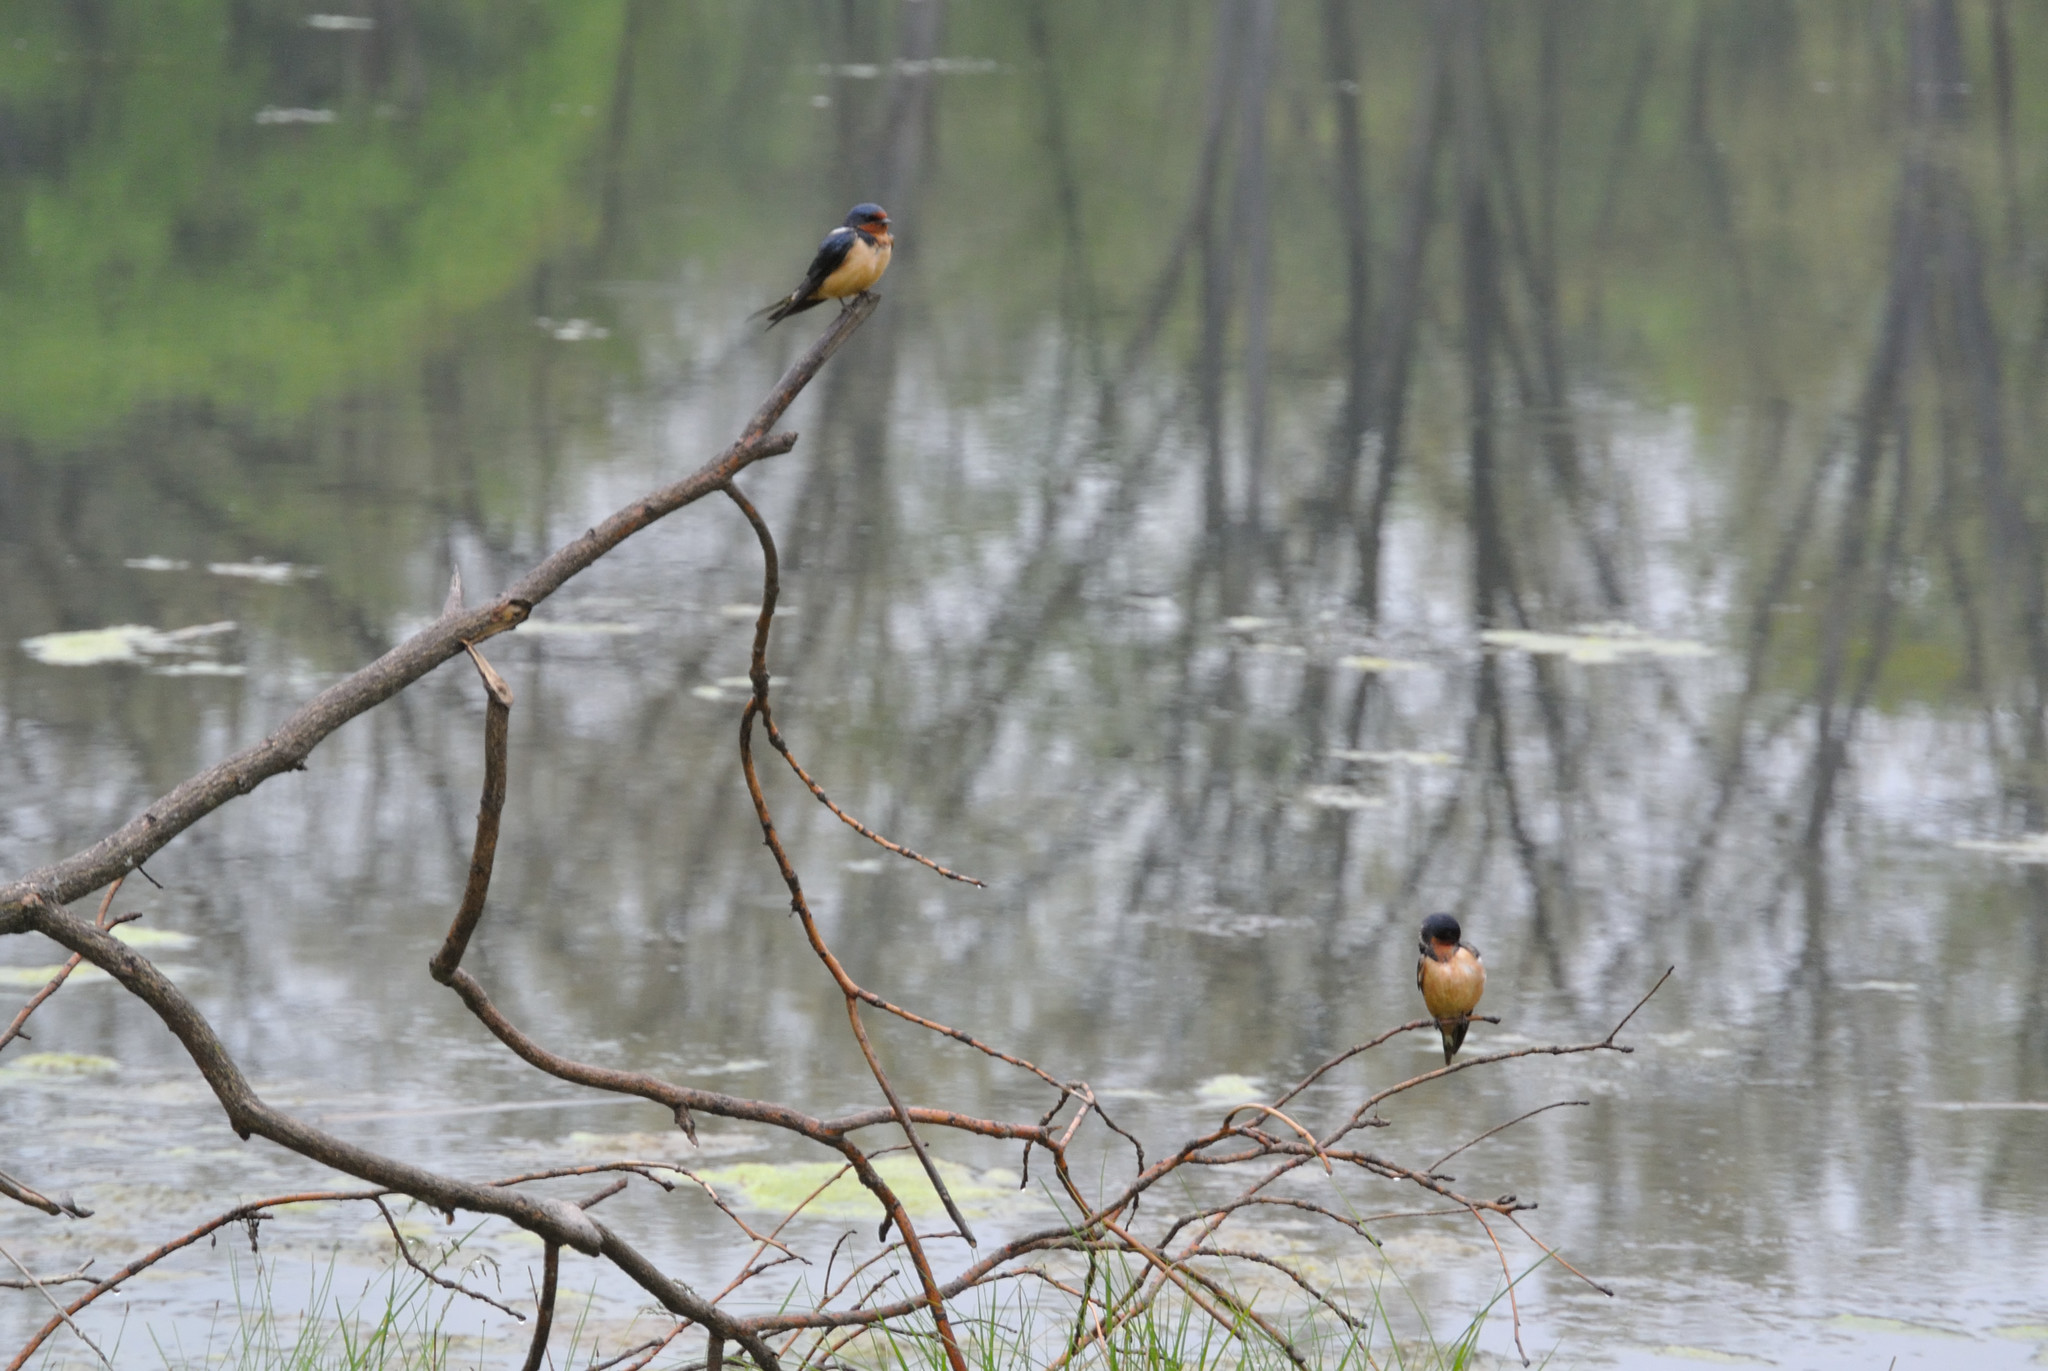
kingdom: Animalia
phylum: Chordata
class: Aves
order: Passeriformes
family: Hirundinidae
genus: Hirundo
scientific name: Hirundo rustica
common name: Barn swallow
